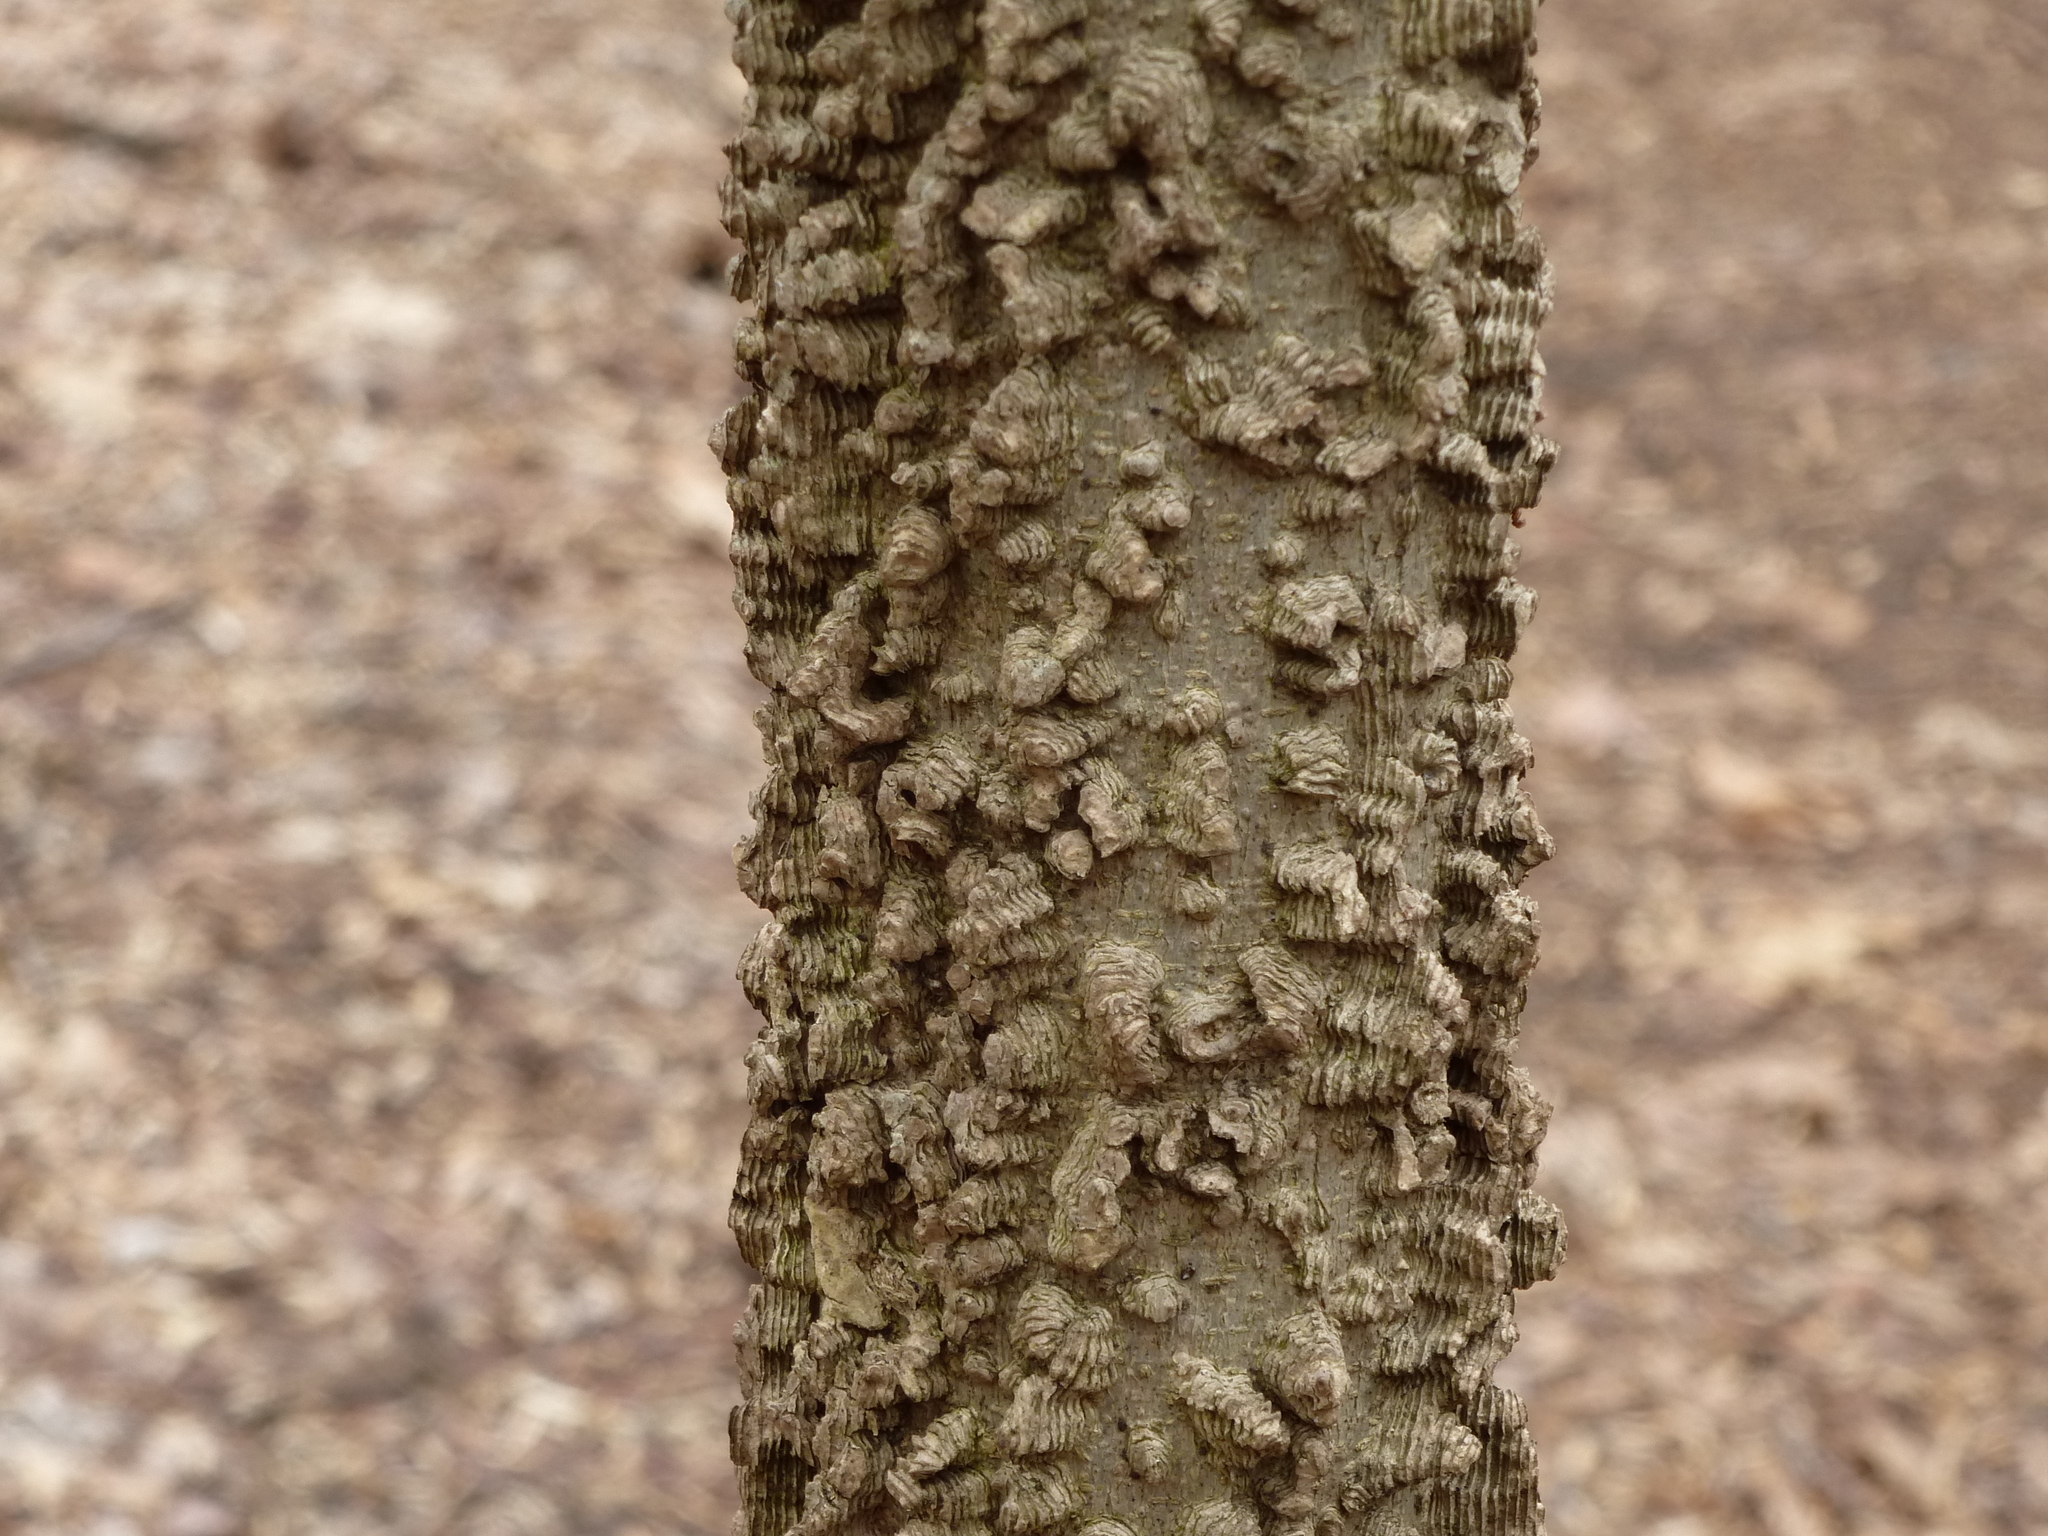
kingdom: Plantae
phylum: Tracheophyta
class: Magnoliopsida
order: Rosales
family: Cannabaceae
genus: Celtis
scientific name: Celtis occidentalis
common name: Common hackberry
